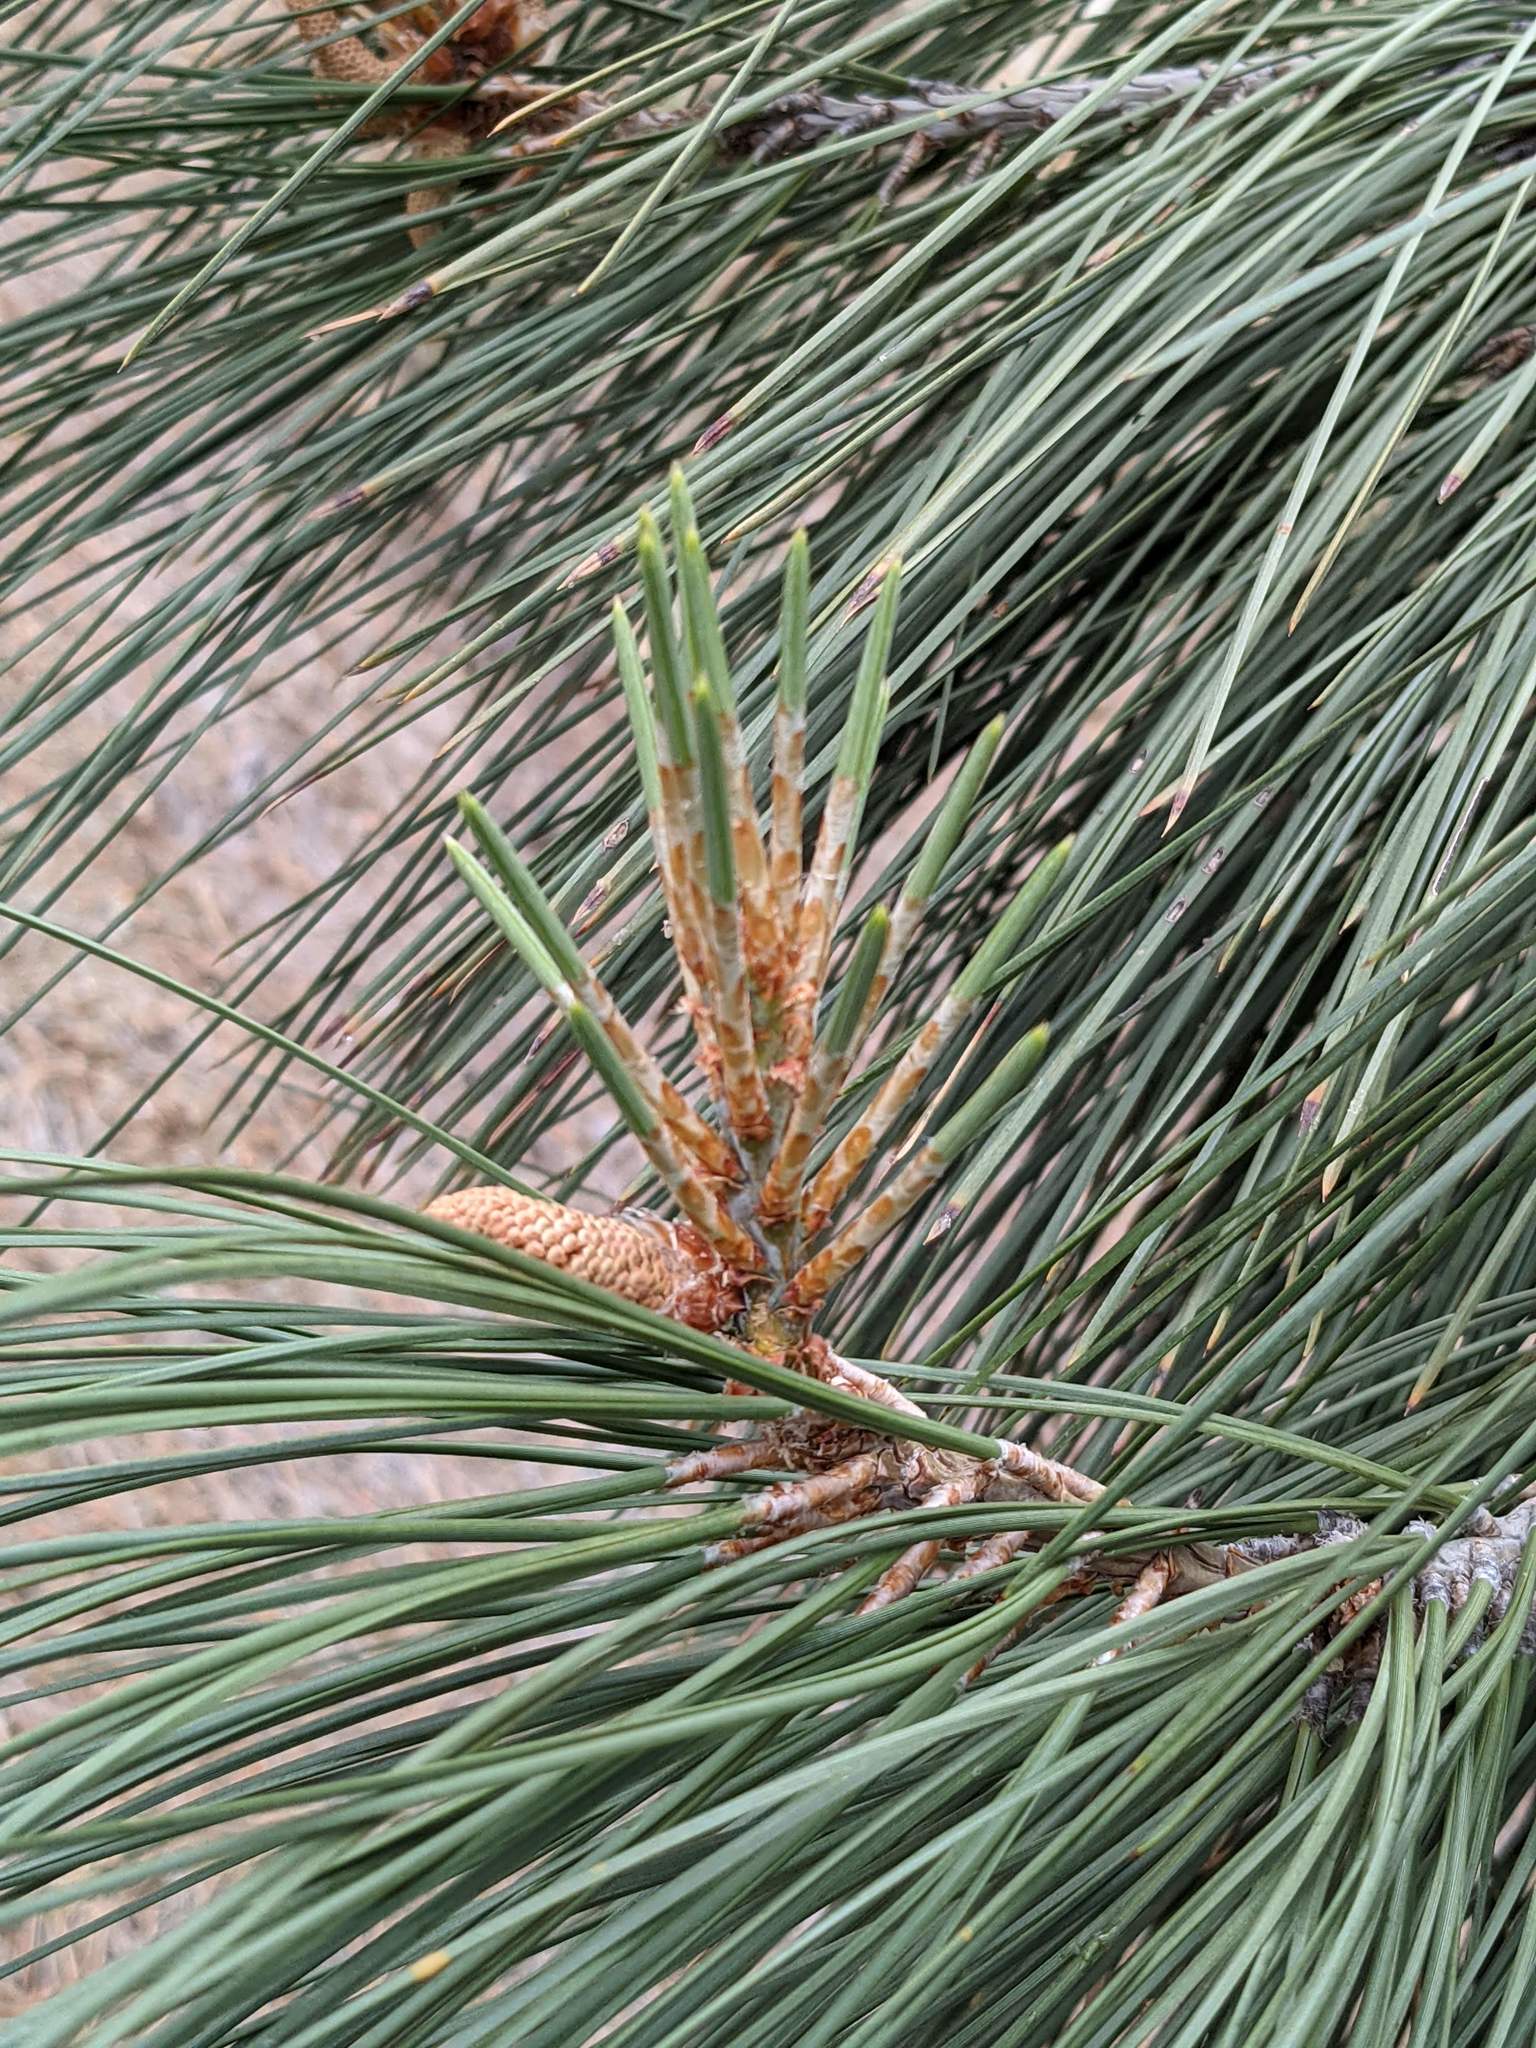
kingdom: Plantae
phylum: Tracheophyta
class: Pinopsida
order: Pinales
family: Pinaceae
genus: Pinus
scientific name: Pinus sabiniana
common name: Bull pine
